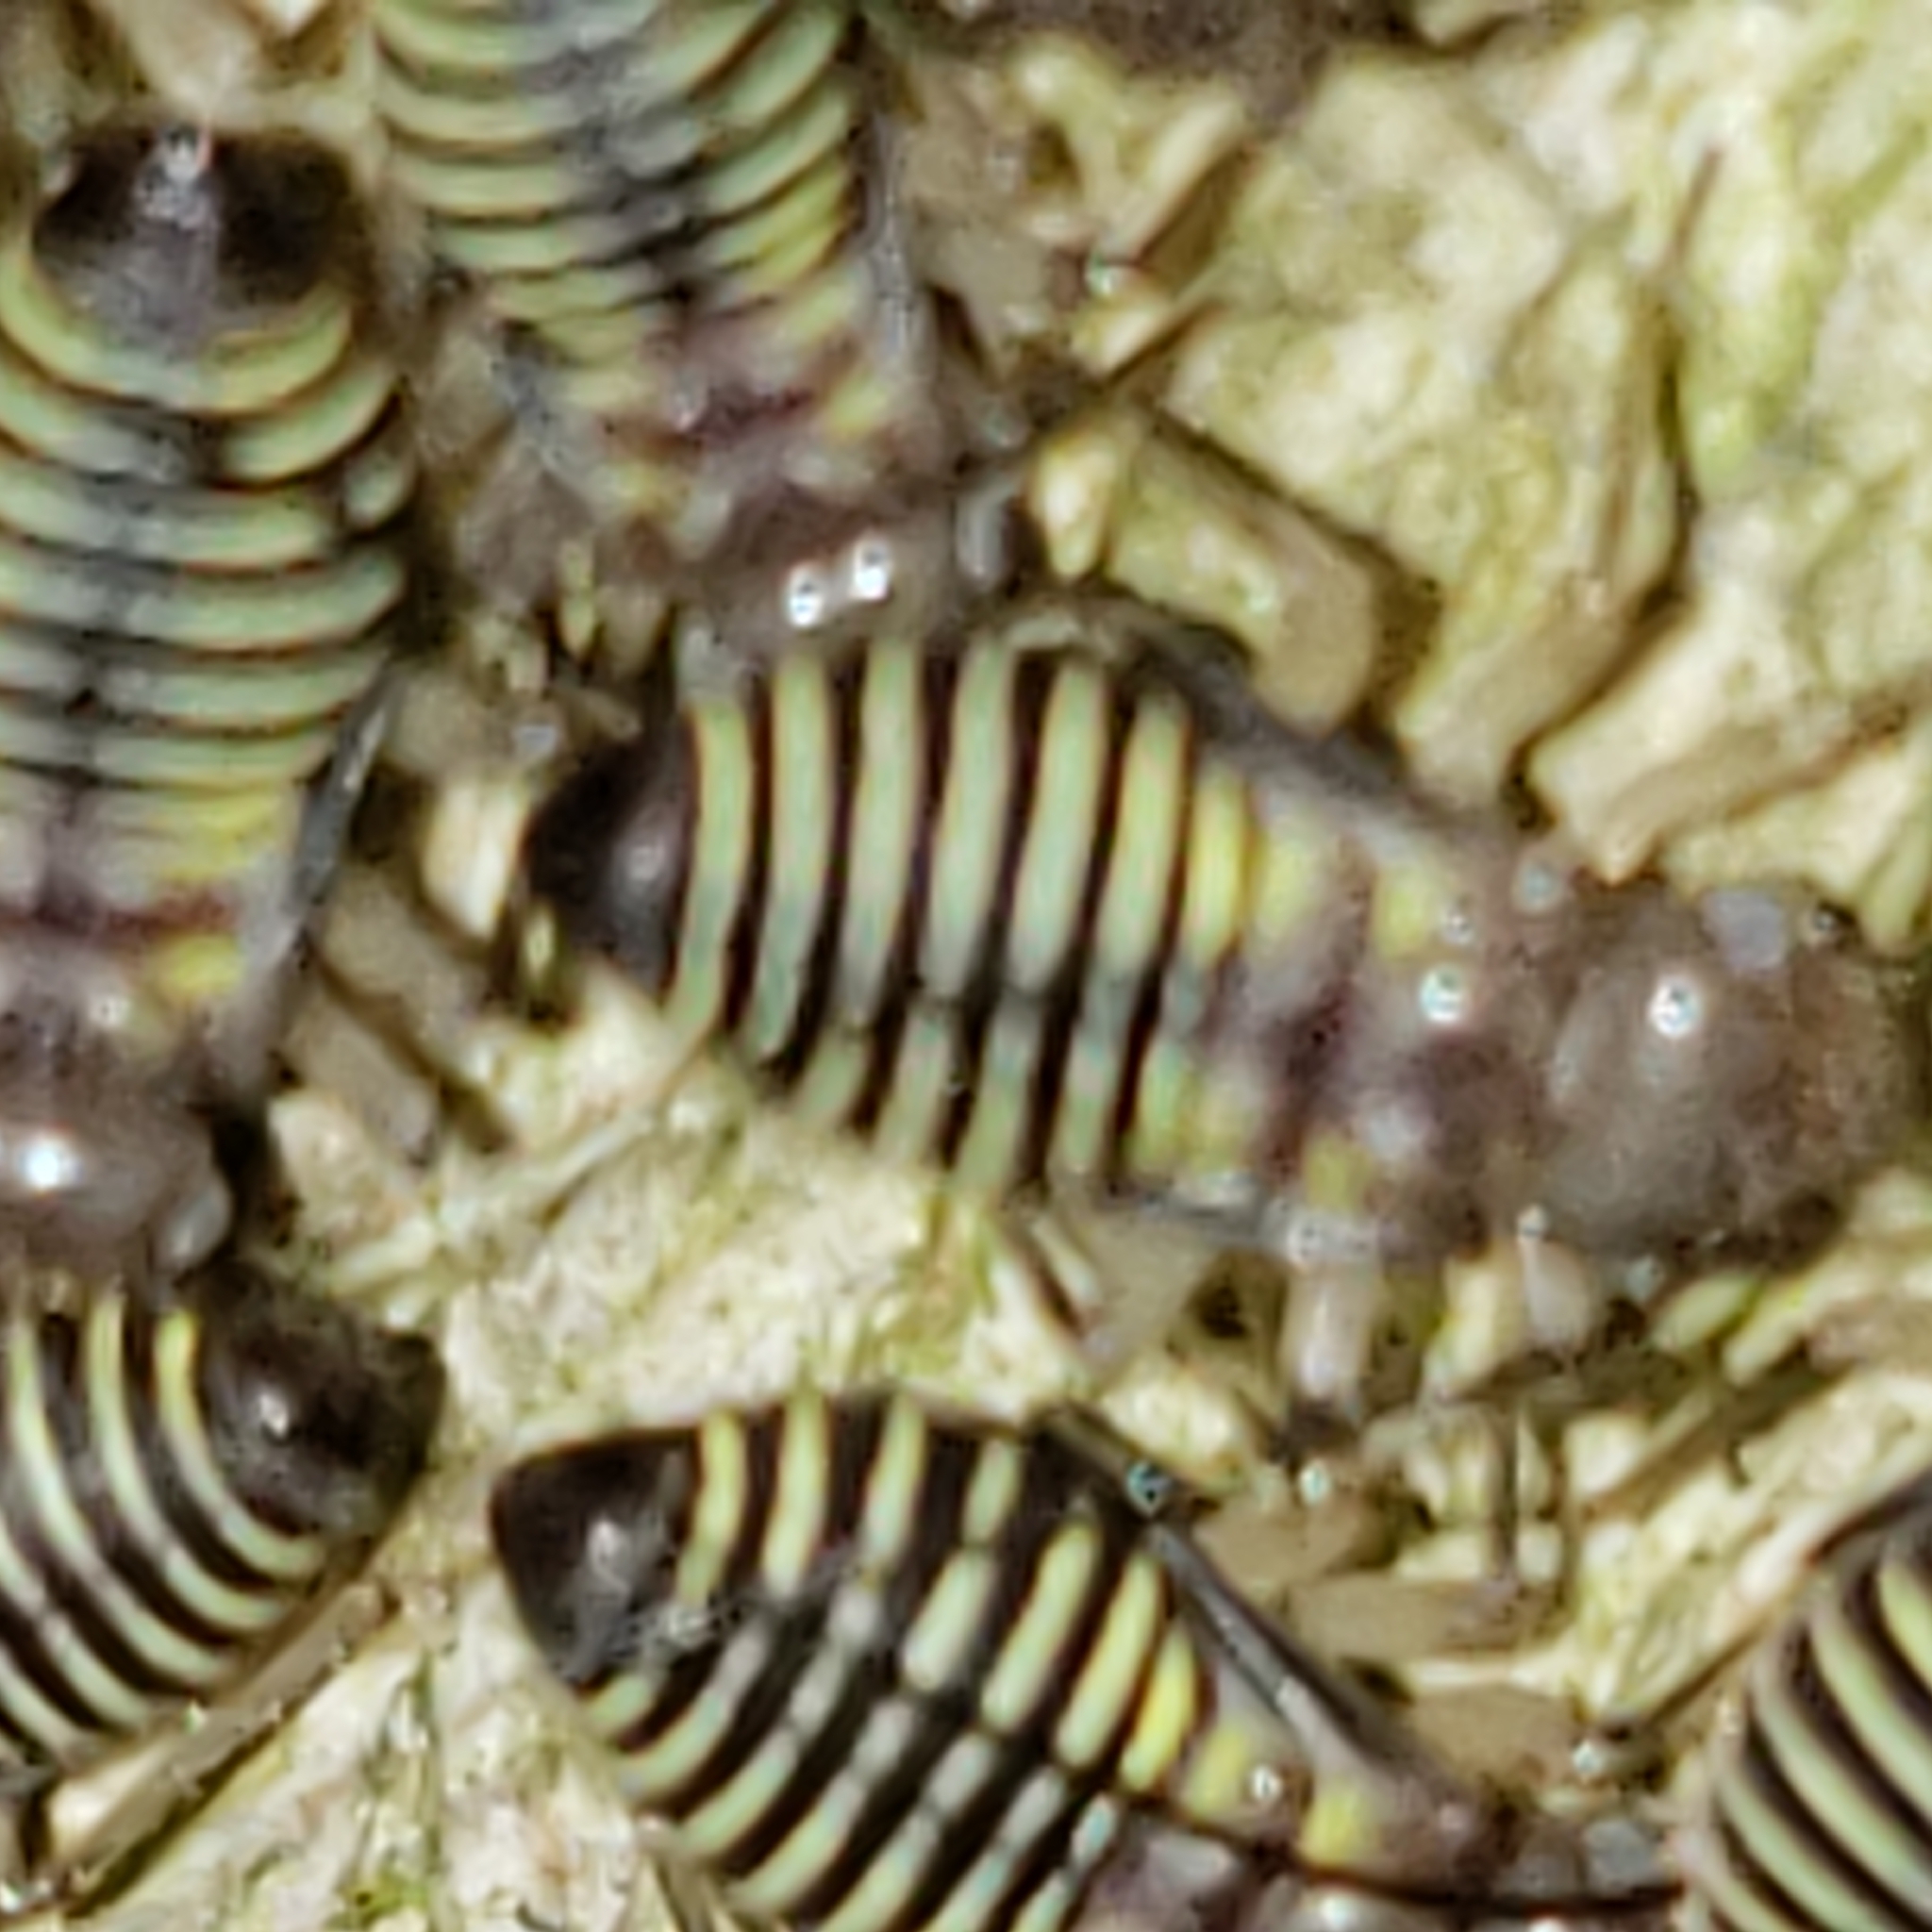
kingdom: Animalia
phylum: Arthropoda
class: Insecta
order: Psocodea
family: Psocidae
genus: Cerastipsocus
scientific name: Cerastipsocus venosus
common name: Tree cattle
